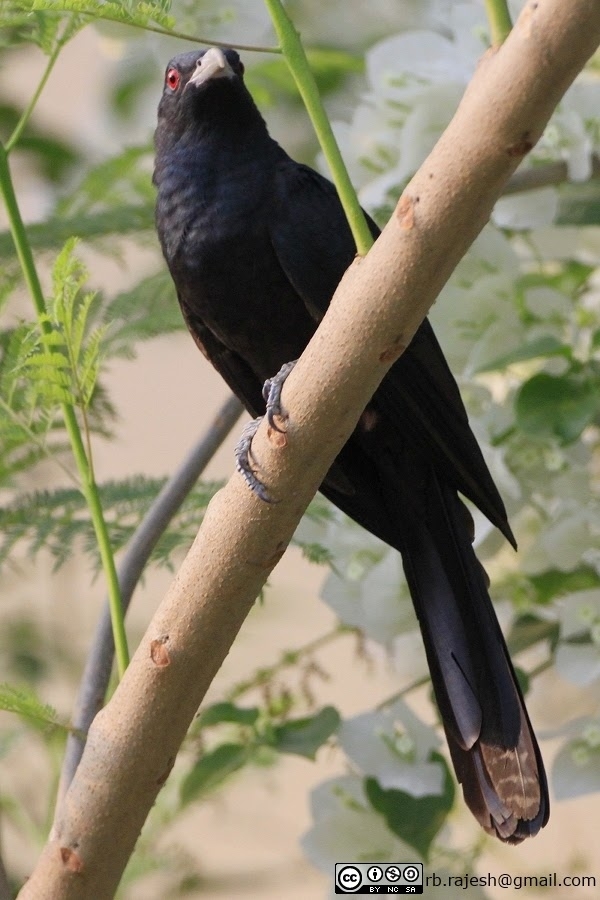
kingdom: Animalia
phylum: Chordata
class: Aves
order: Cuculiformes
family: Cuculidae
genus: Eudynamys
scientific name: Eudynamys scolopaceus
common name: Asian koel
